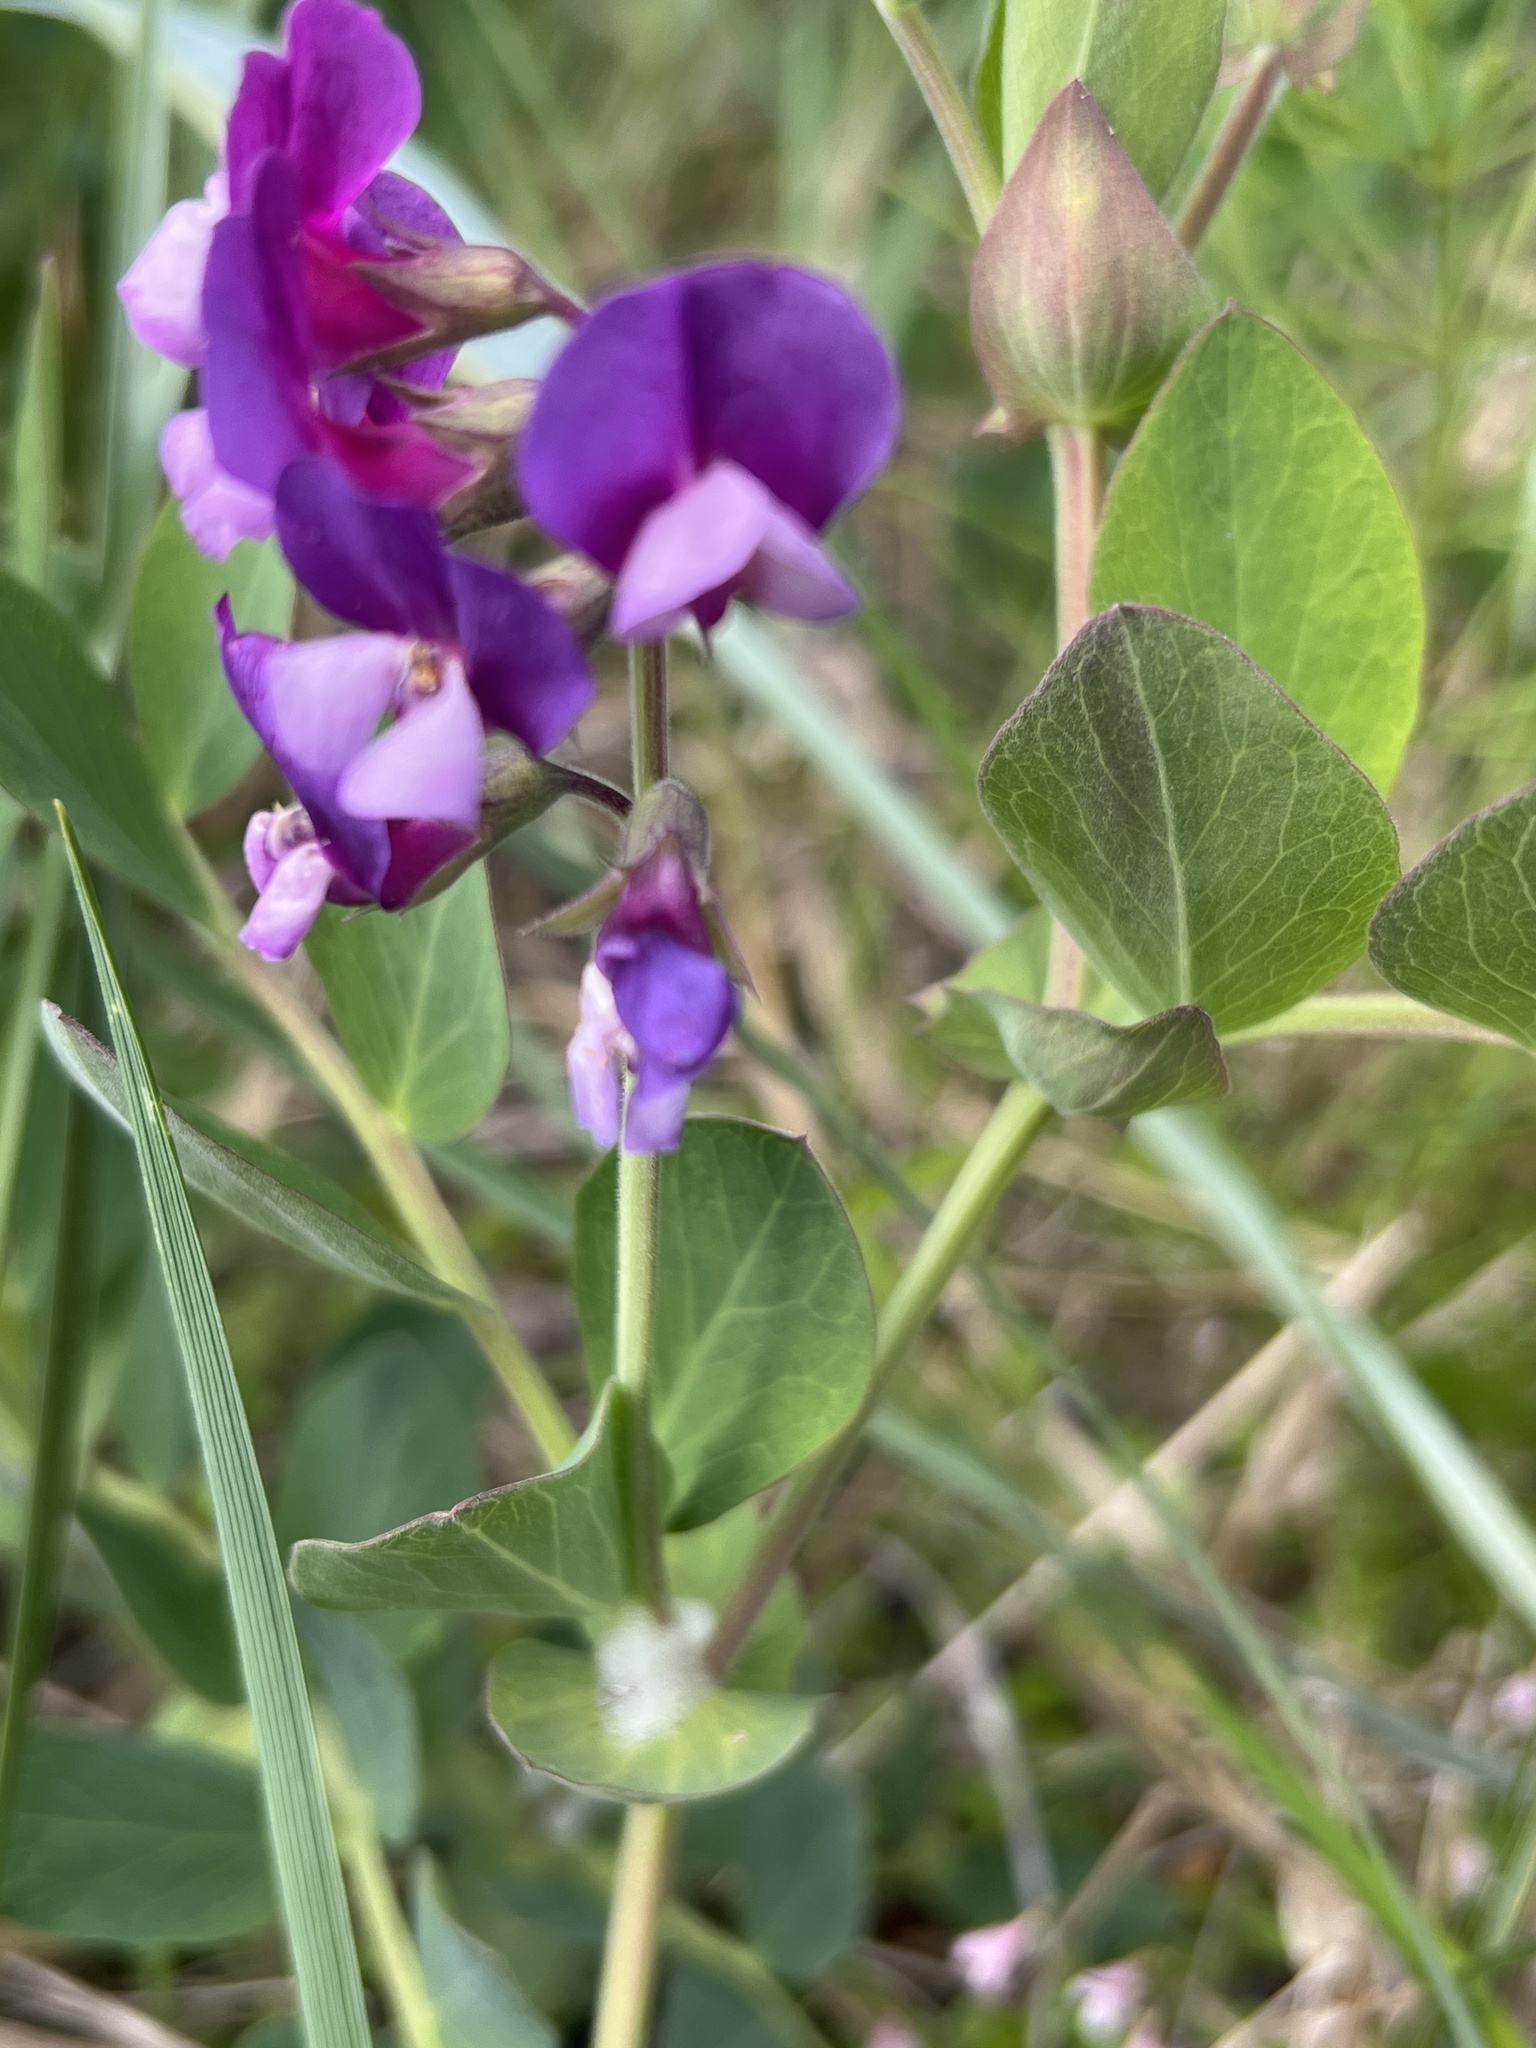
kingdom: Plantae
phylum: Tracheophyta
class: Magnoliopsida
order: Fabales
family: Fabaceae
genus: Lathyrus
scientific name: Lathyrus japonicus
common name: Sea pea
